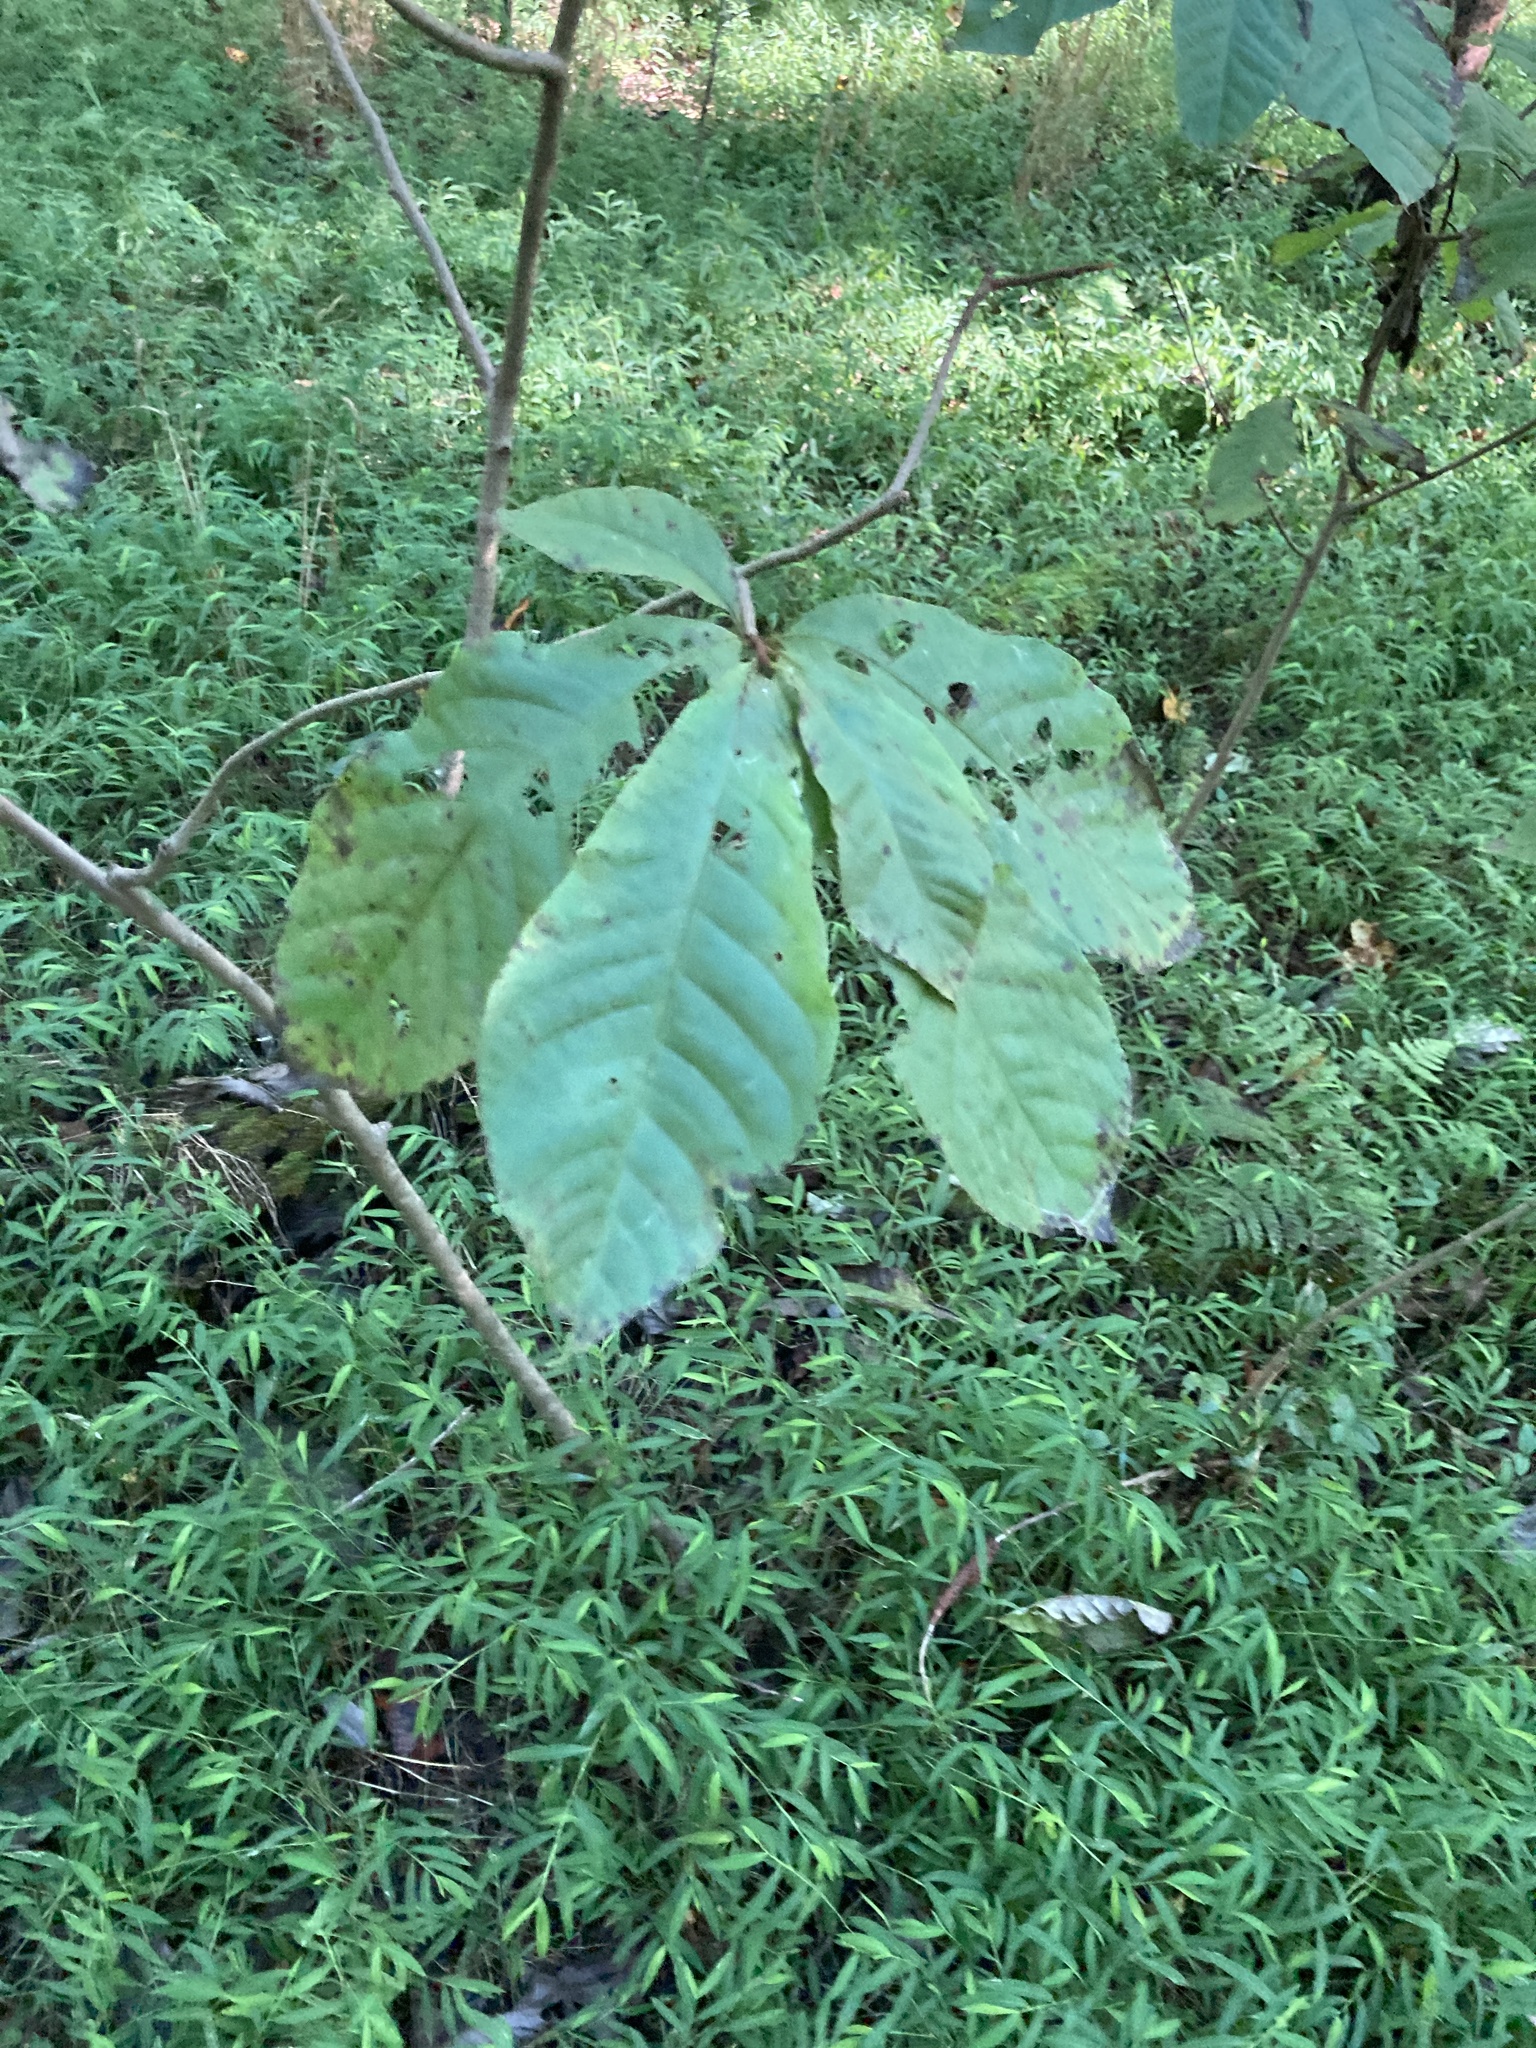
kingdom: Plantae
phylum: Tracheophyta
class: Magnoliopsida
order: Magnoliales
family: Annonaceae
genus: Asimina
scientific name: Asimina triloba
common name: Dog-banana
